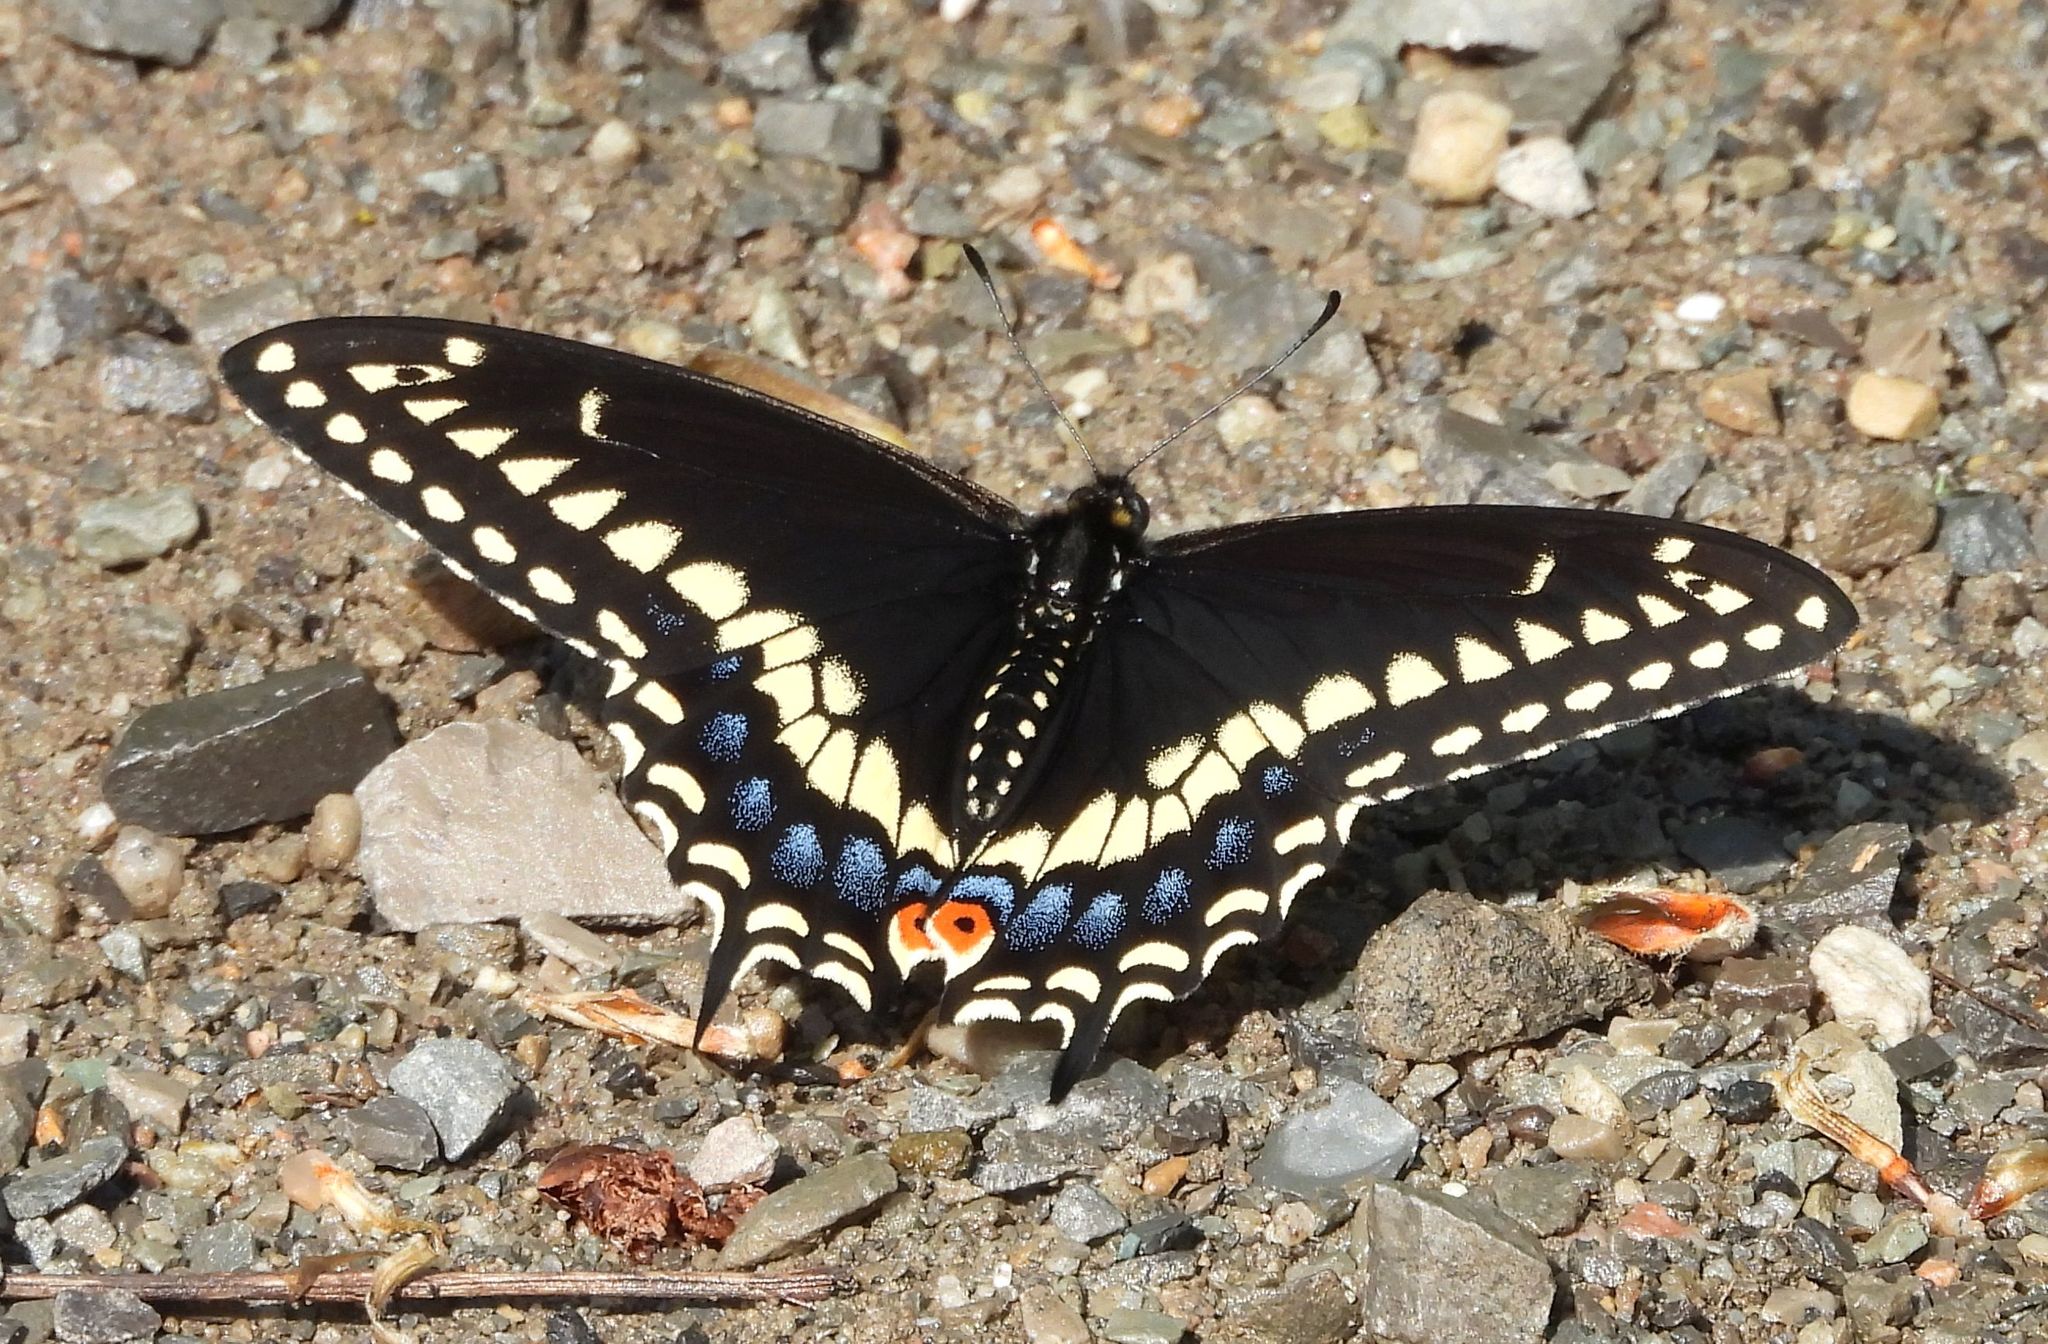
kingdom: Animalia
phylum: Arthropoda
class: Insecta
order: Lepidoptera
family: Papilionidae
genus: Papilio
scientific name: Papilio polyxenes
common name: Black swallowtail
